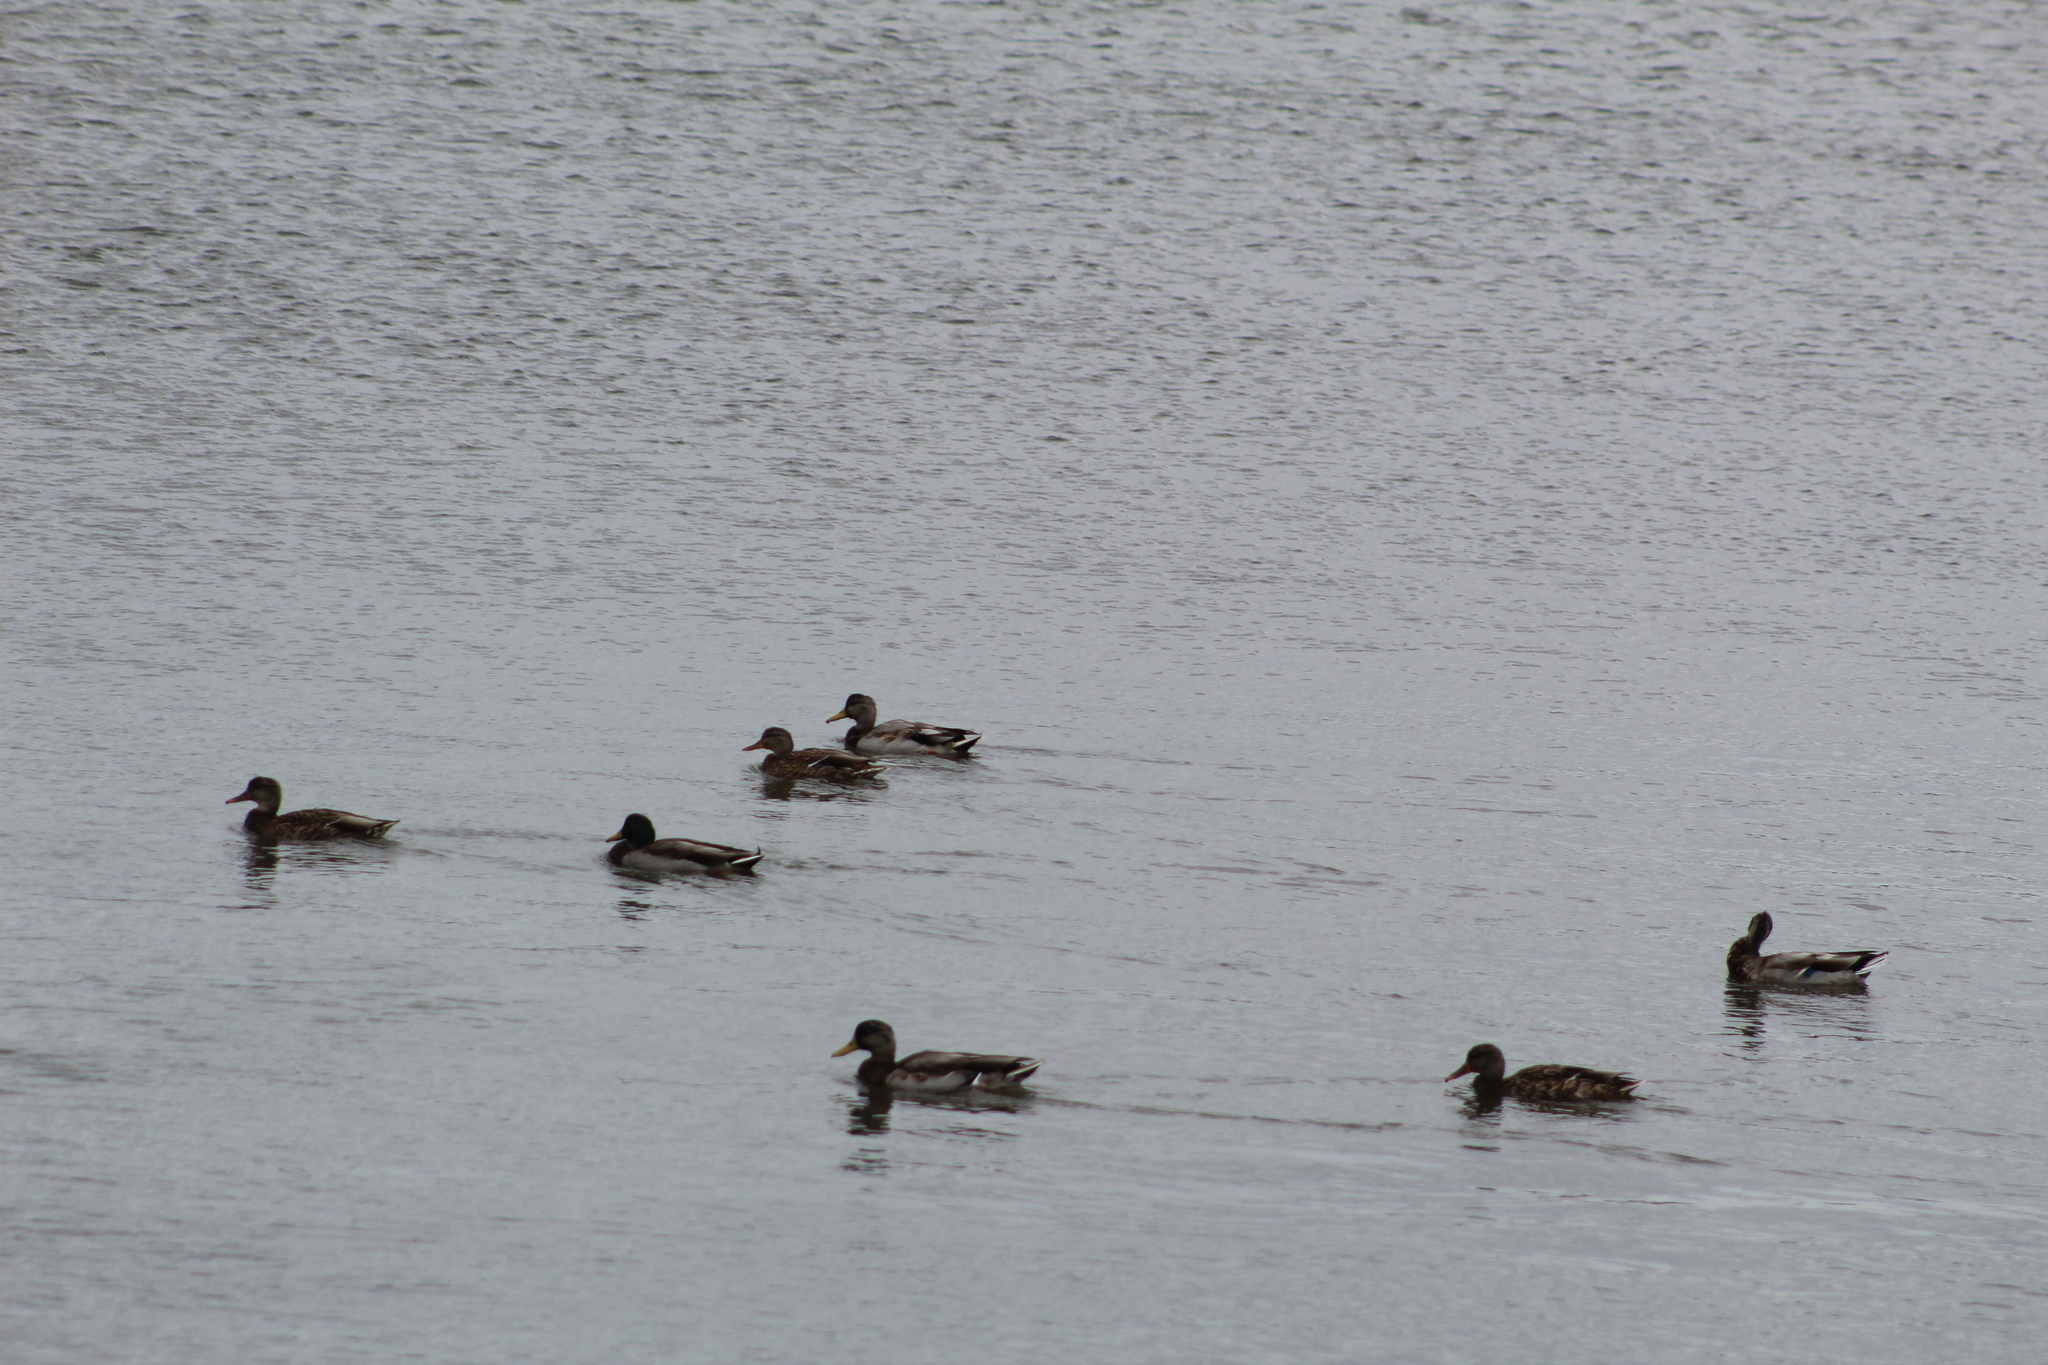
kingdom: Animalia
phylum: Chordata
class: Aves
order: Anseriformes
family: Anatidae
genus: Anas
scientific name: Anas platyrhynchos
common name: Mallard
